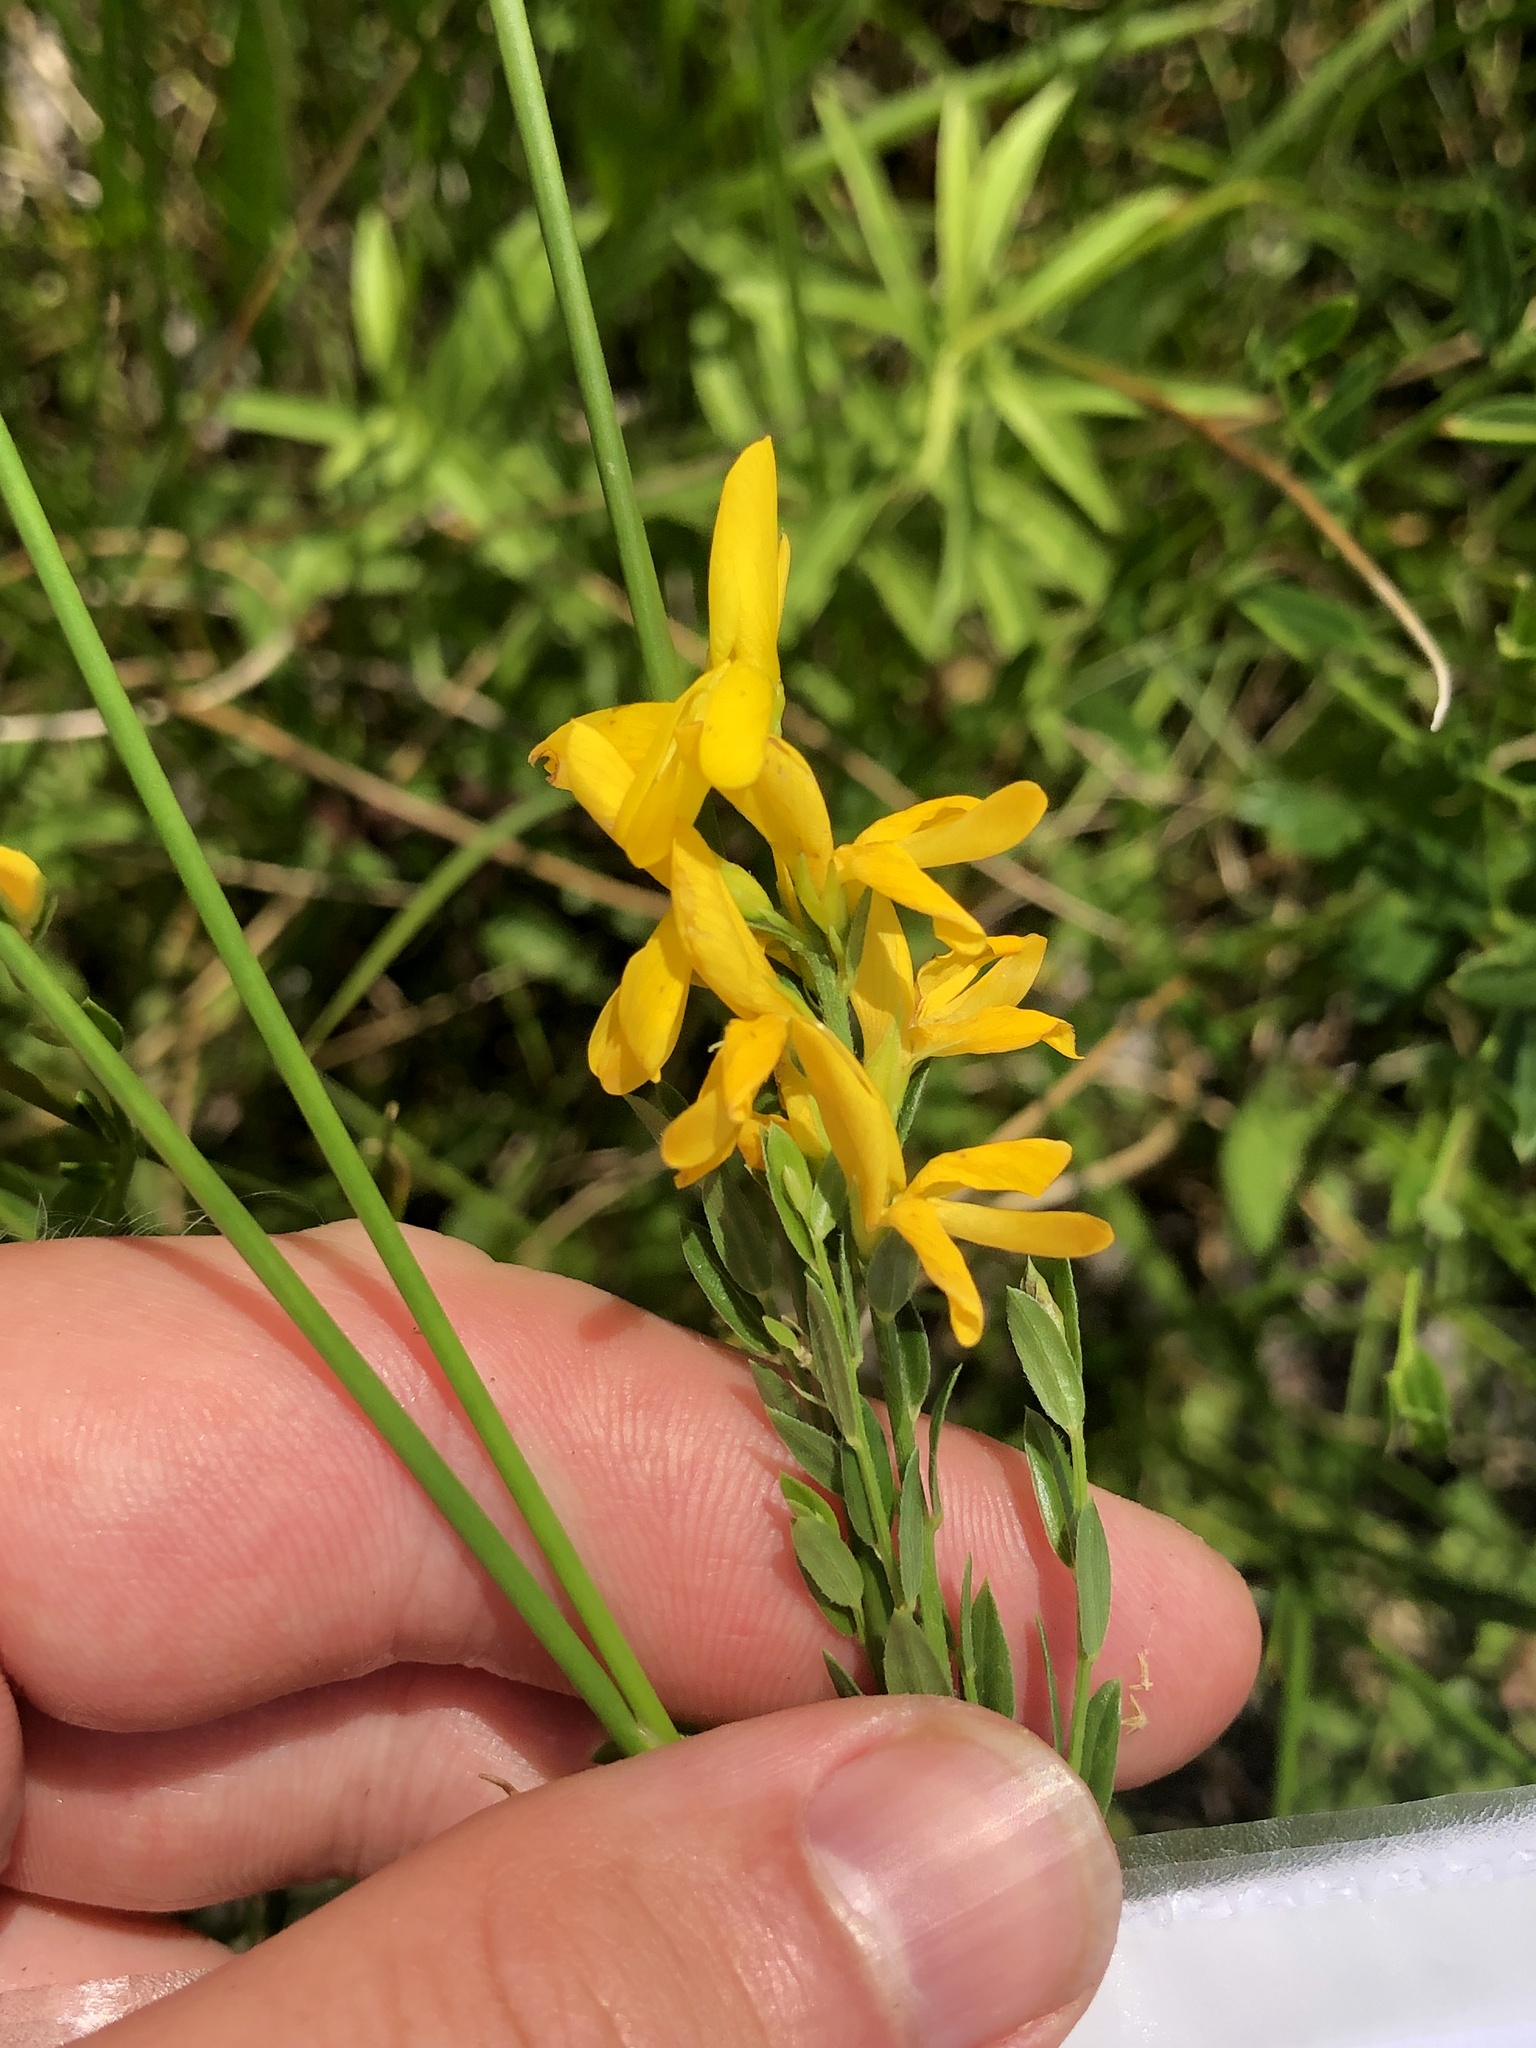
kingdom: Plantae
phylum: Tracheophyta
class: Magnoliopsida
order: Fabales
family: Fabaceae
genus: Genista
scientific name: Genista tinctoria
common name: Dyer's greenweed
